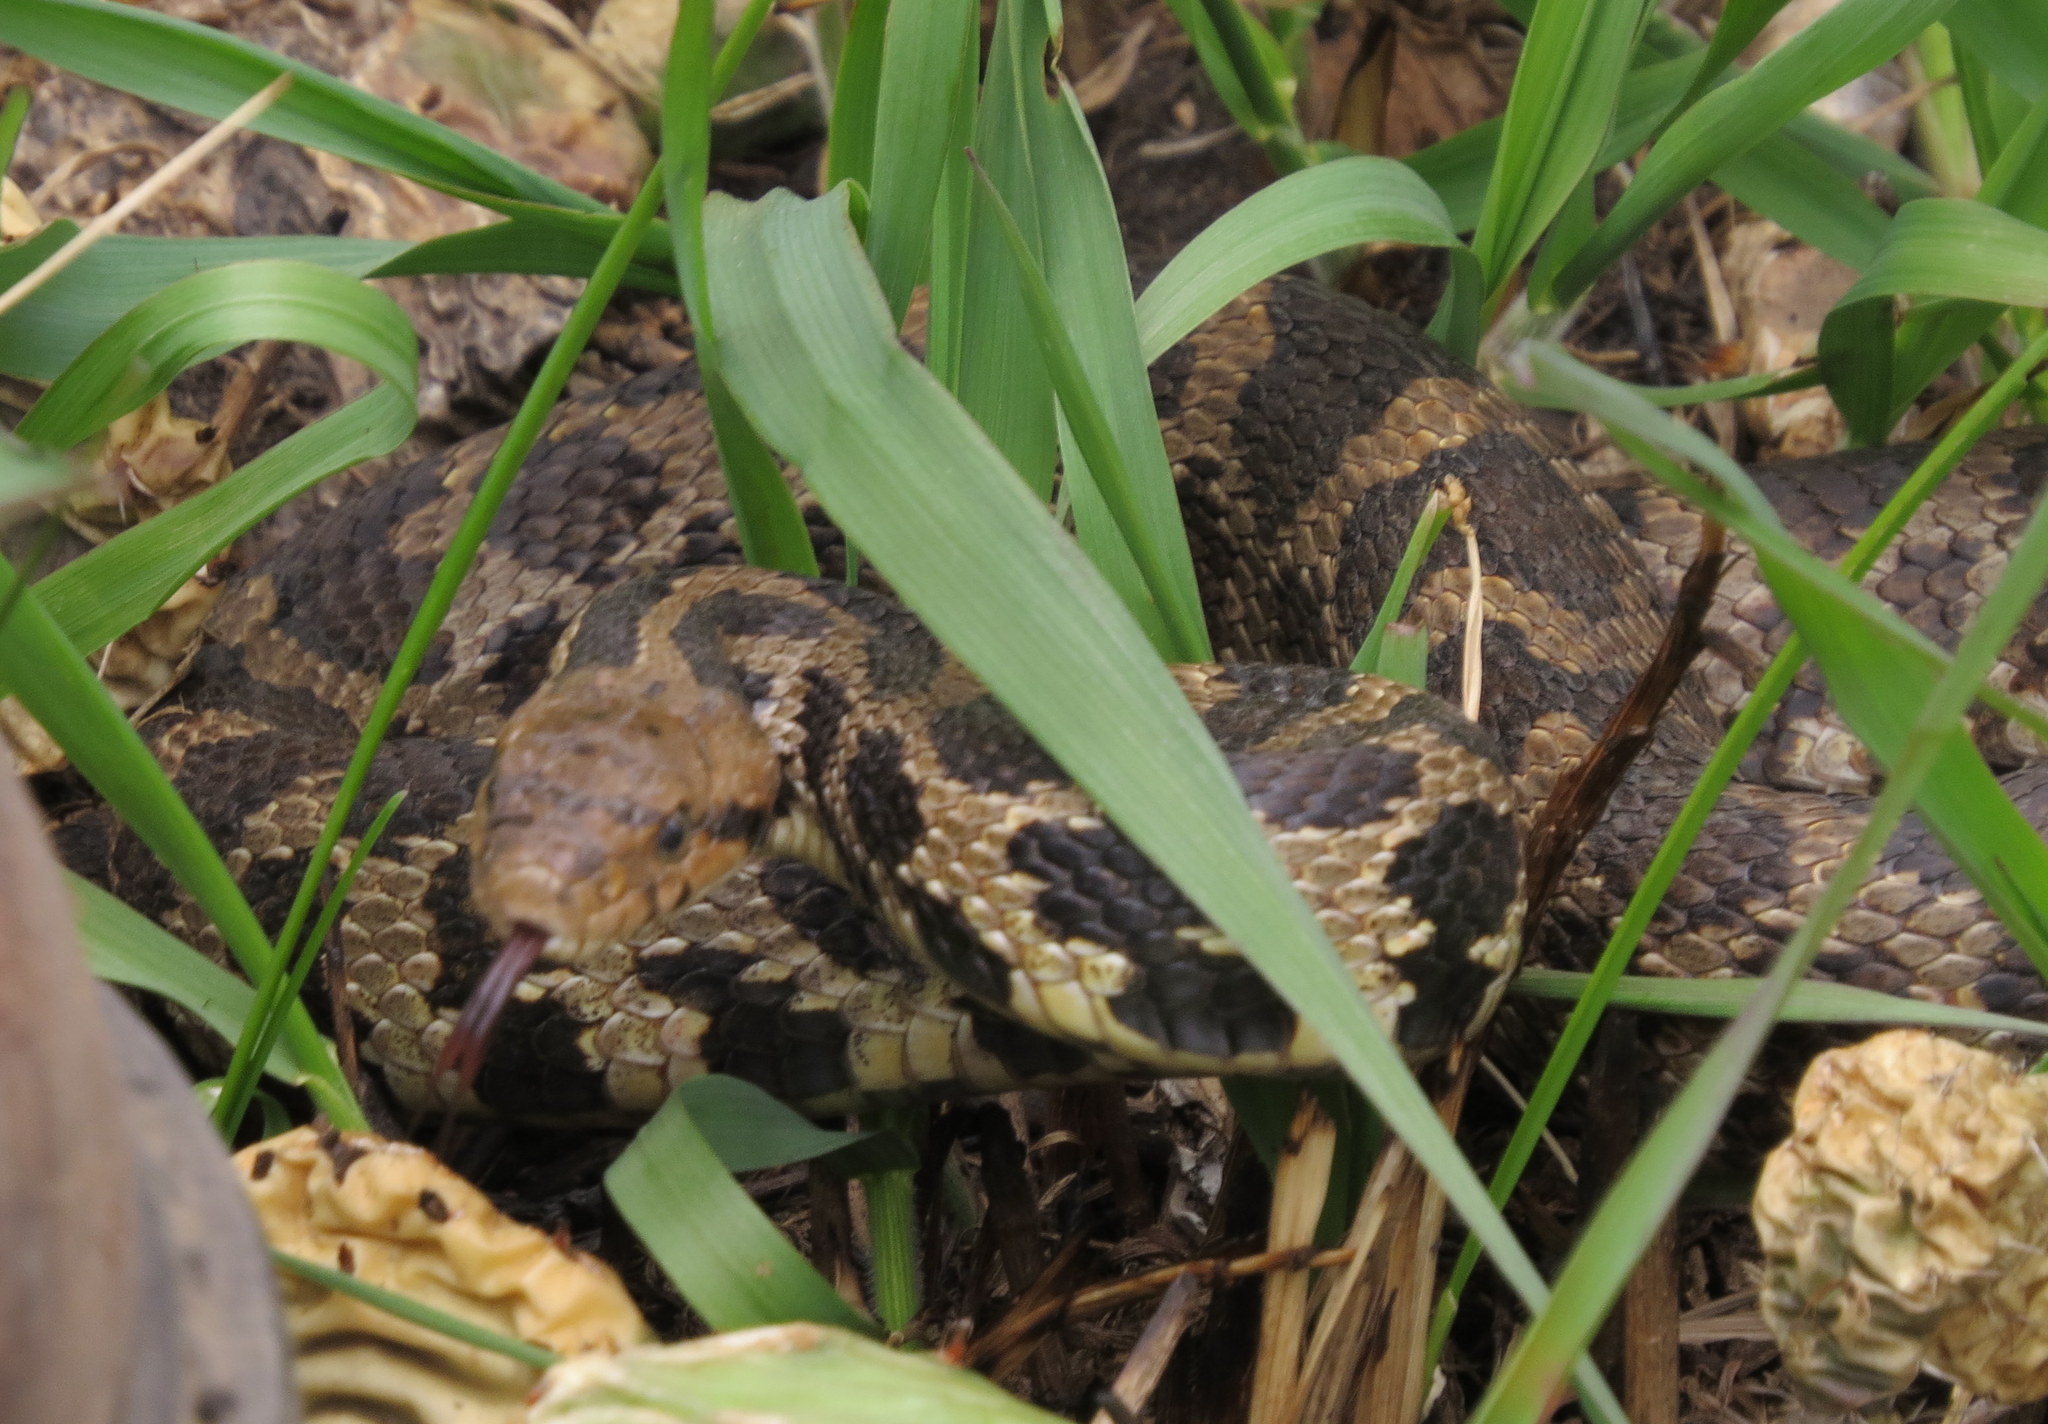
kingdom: Animalia
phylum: Chordata
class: Squamata
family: Colubridae
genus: Pantherophis
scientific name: Pantherophis vulpinus
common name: Eastern fox snake
